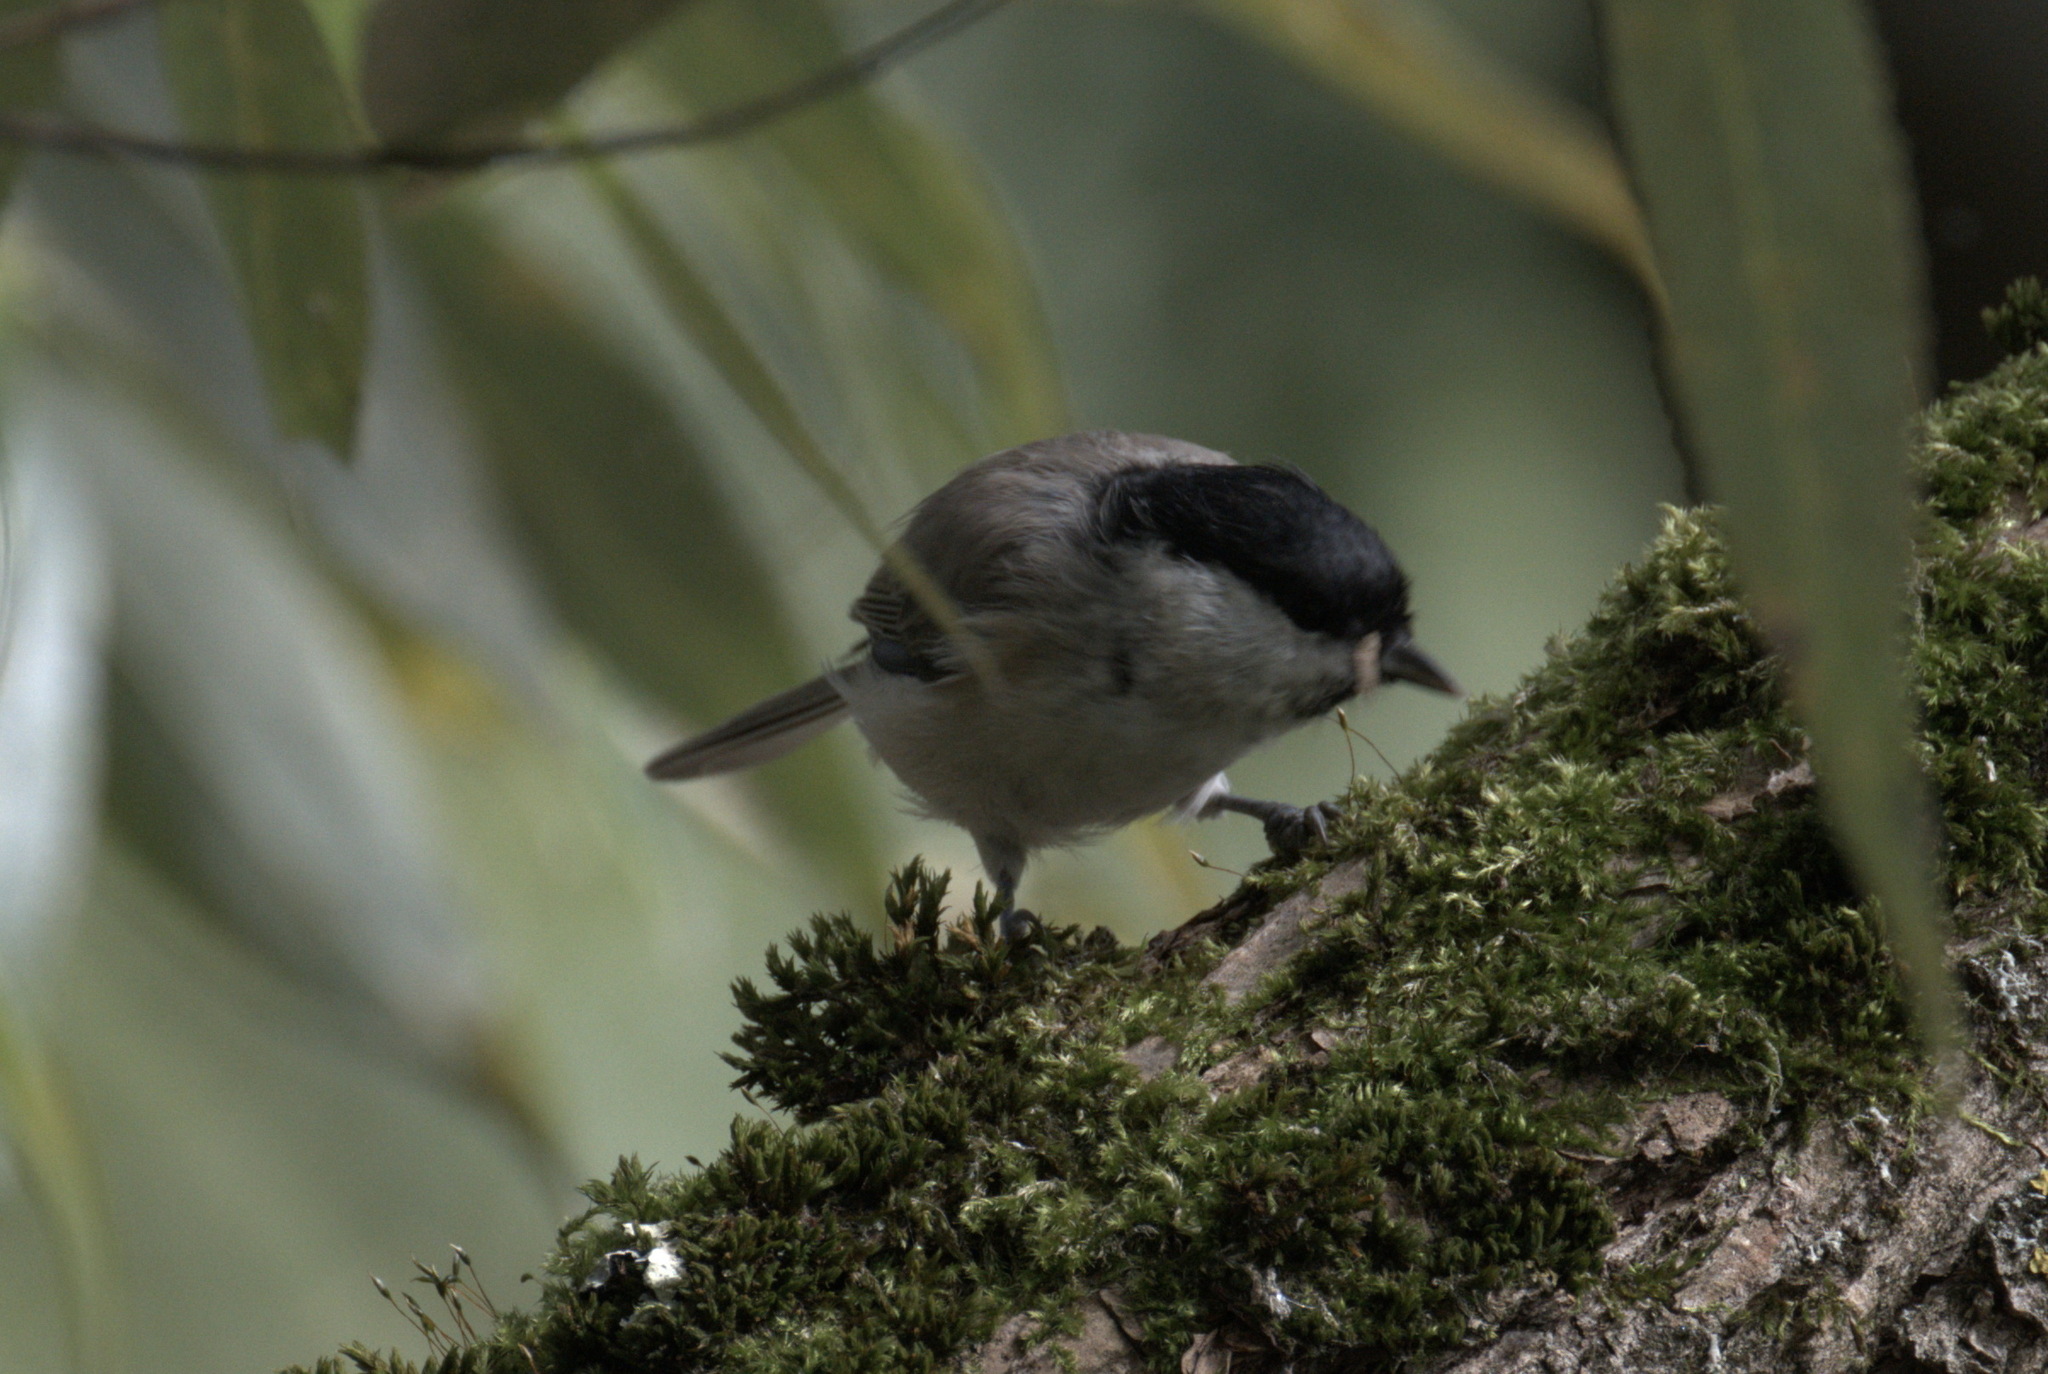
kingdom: Animalia
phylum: Chordata
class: Aves
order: Passeriformes
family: Paridae
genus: Poecile
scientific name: Poecile palustris
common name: Marsh tit
